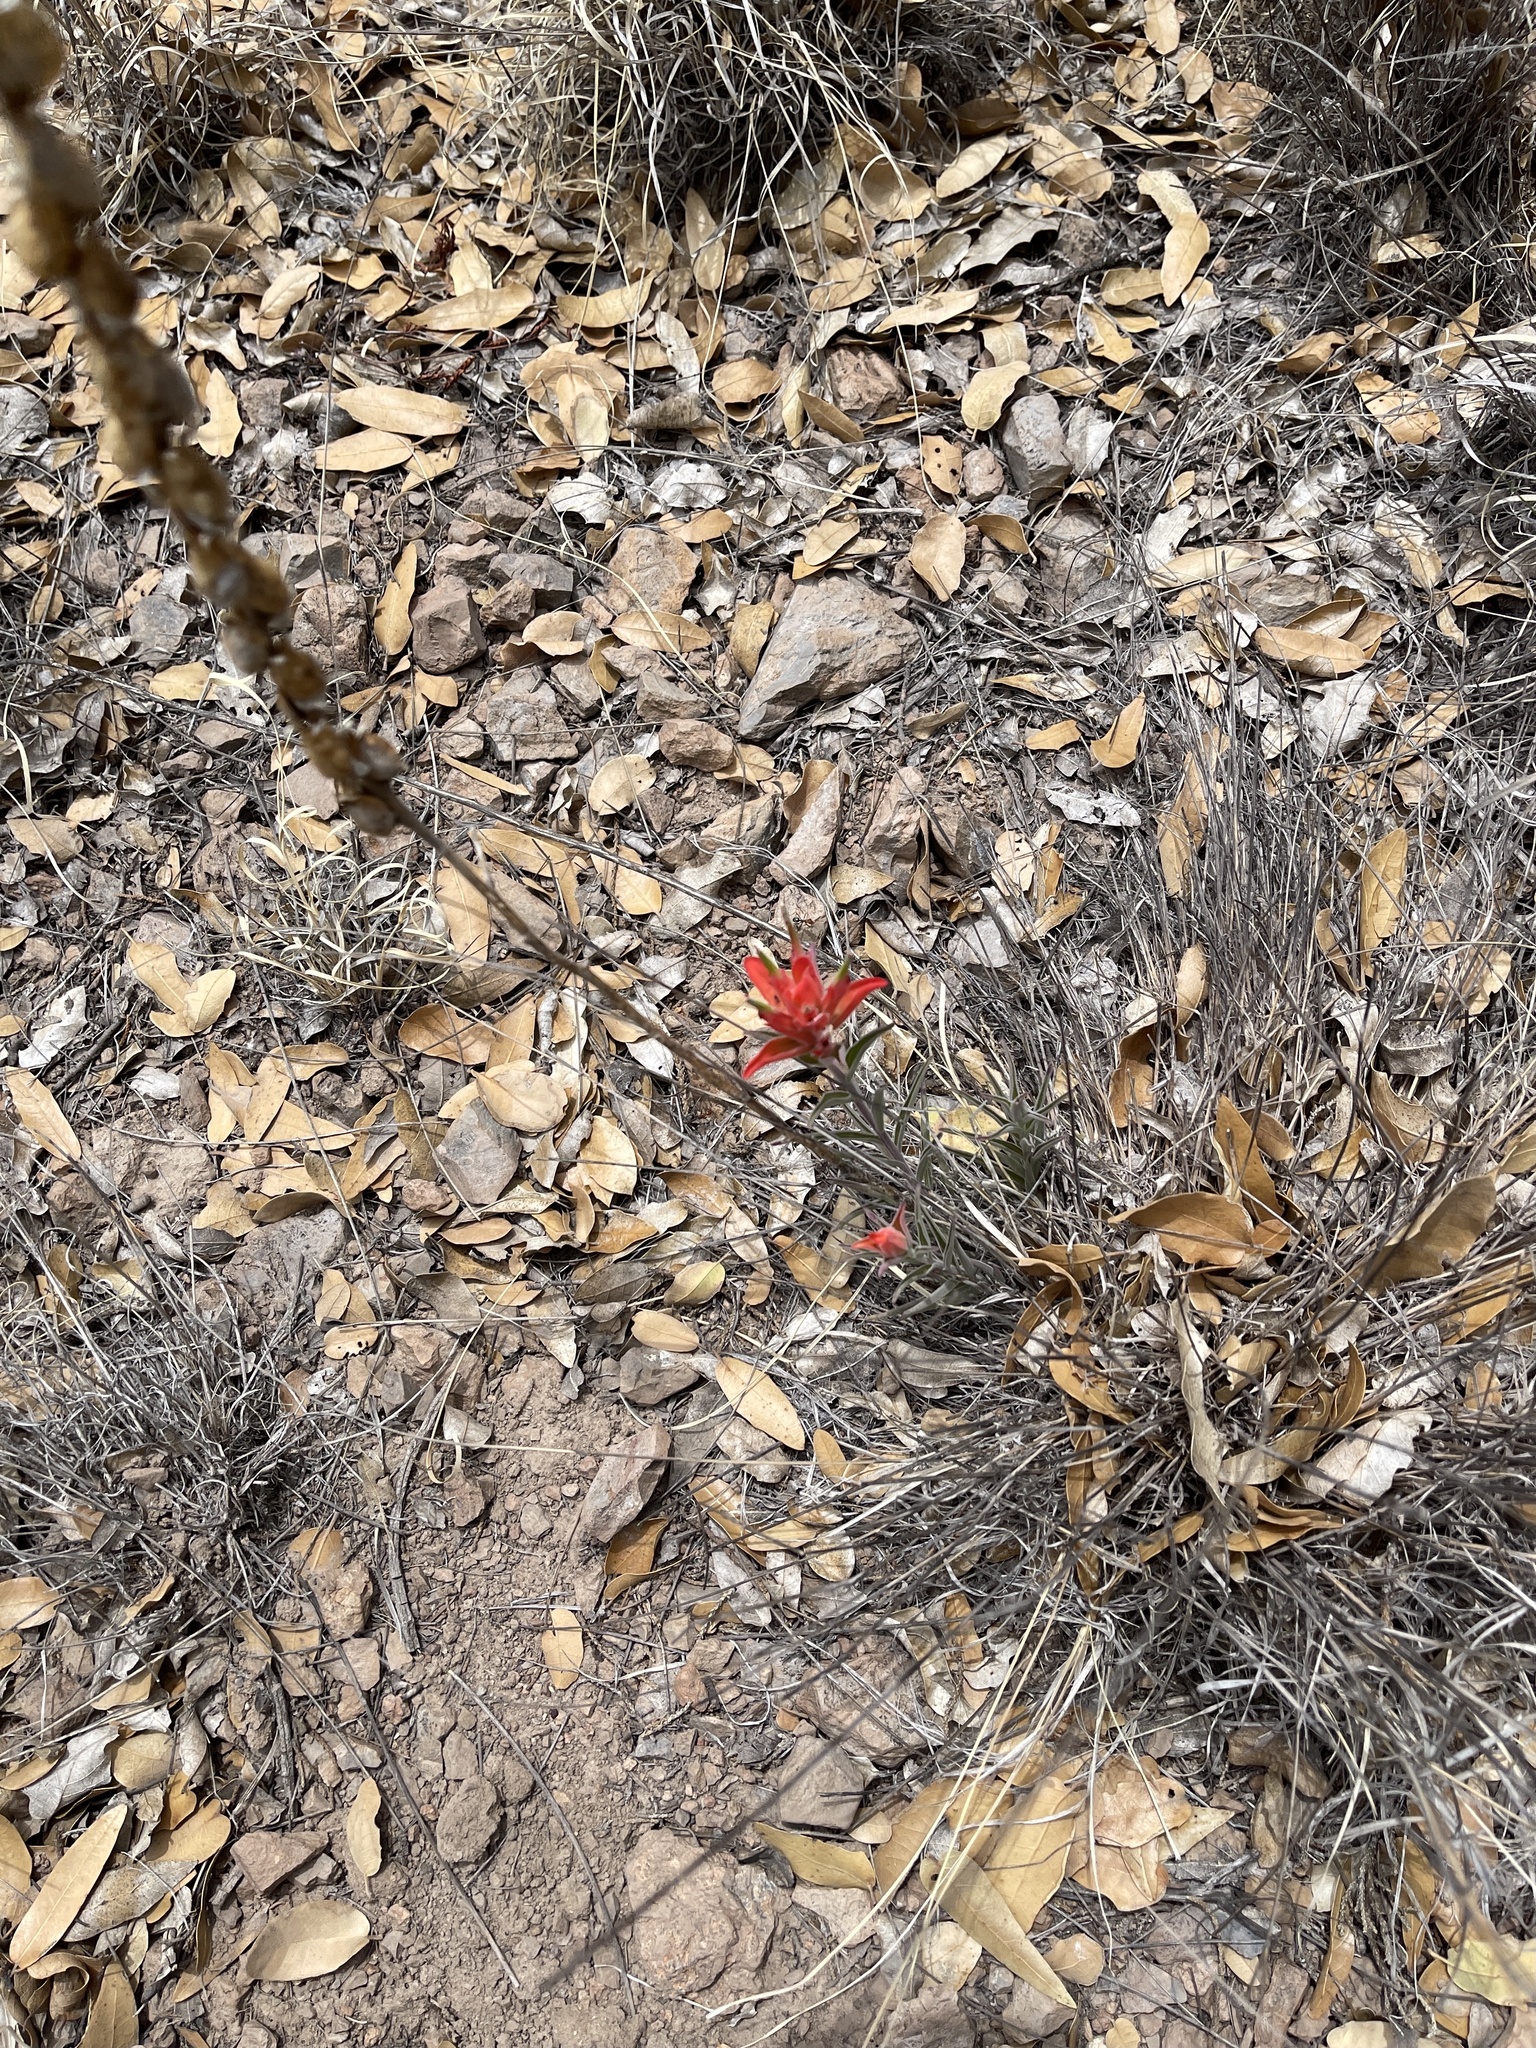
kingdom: Plantae
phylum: Tracheophyta
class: Magnoliopsida
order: Lamiales
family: Orobanchaceae
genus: Castilleja
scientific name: Castilleja integra
